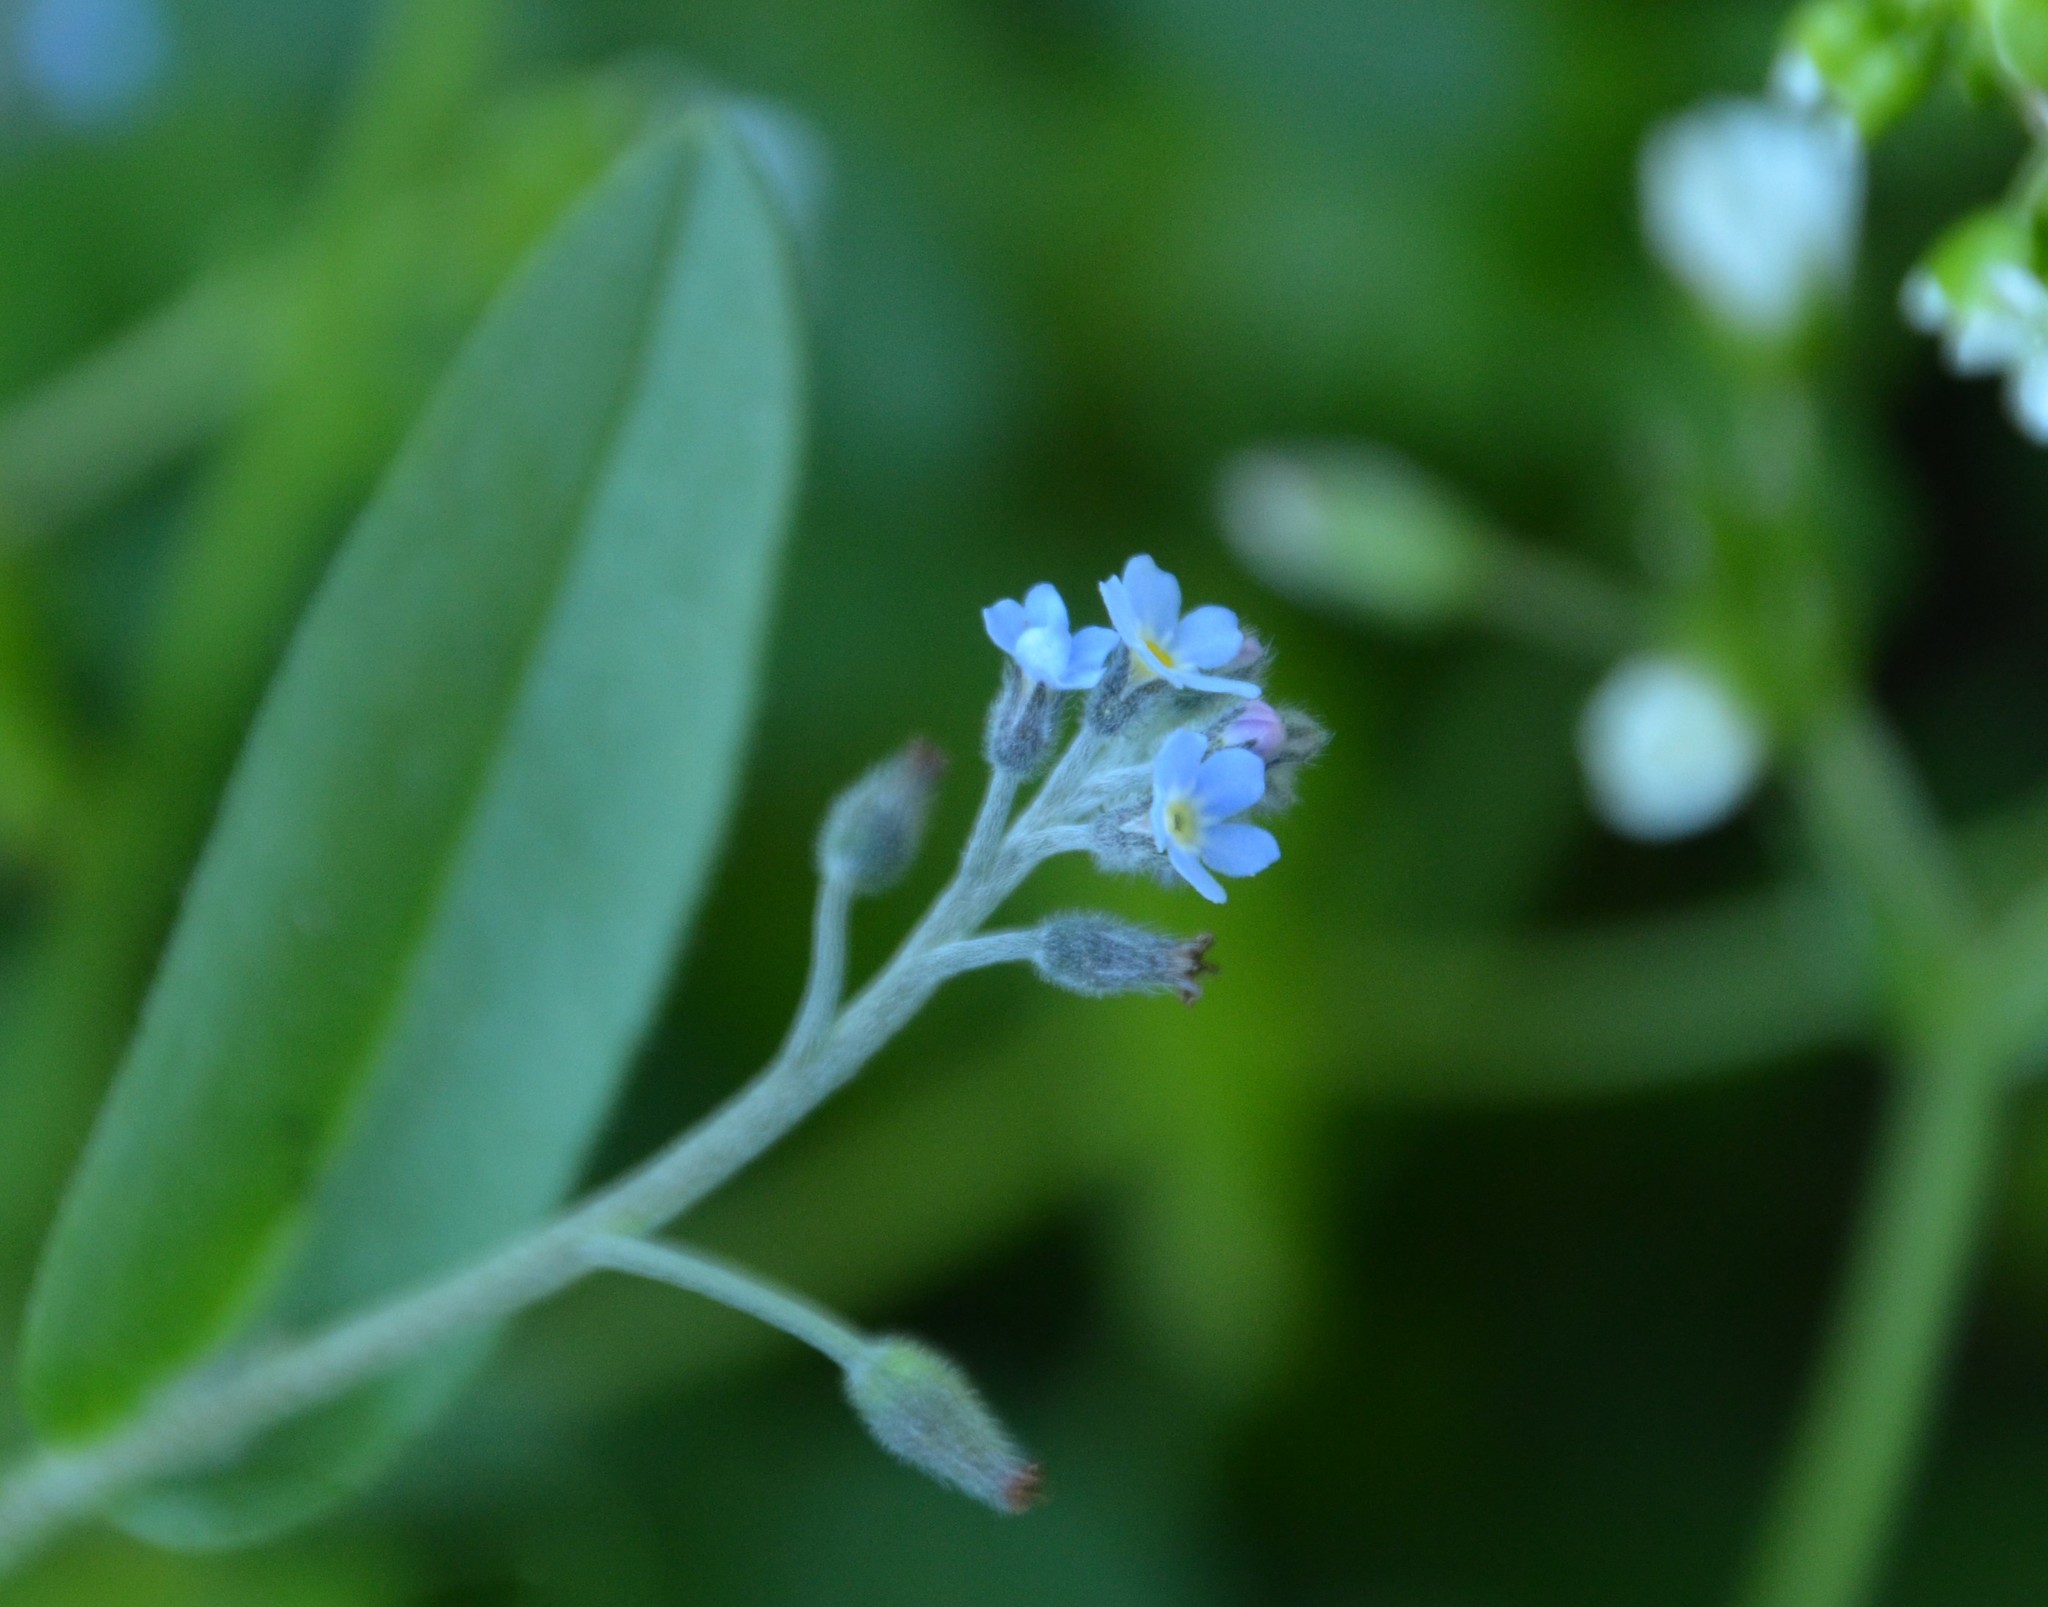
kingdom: Plantae
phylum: Tracheophyta
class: Magnoliopsida
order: Boraginales
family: Boraginaceae
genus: Myosotis
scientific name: Myosotis arvensis
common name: Field forget-me-not
